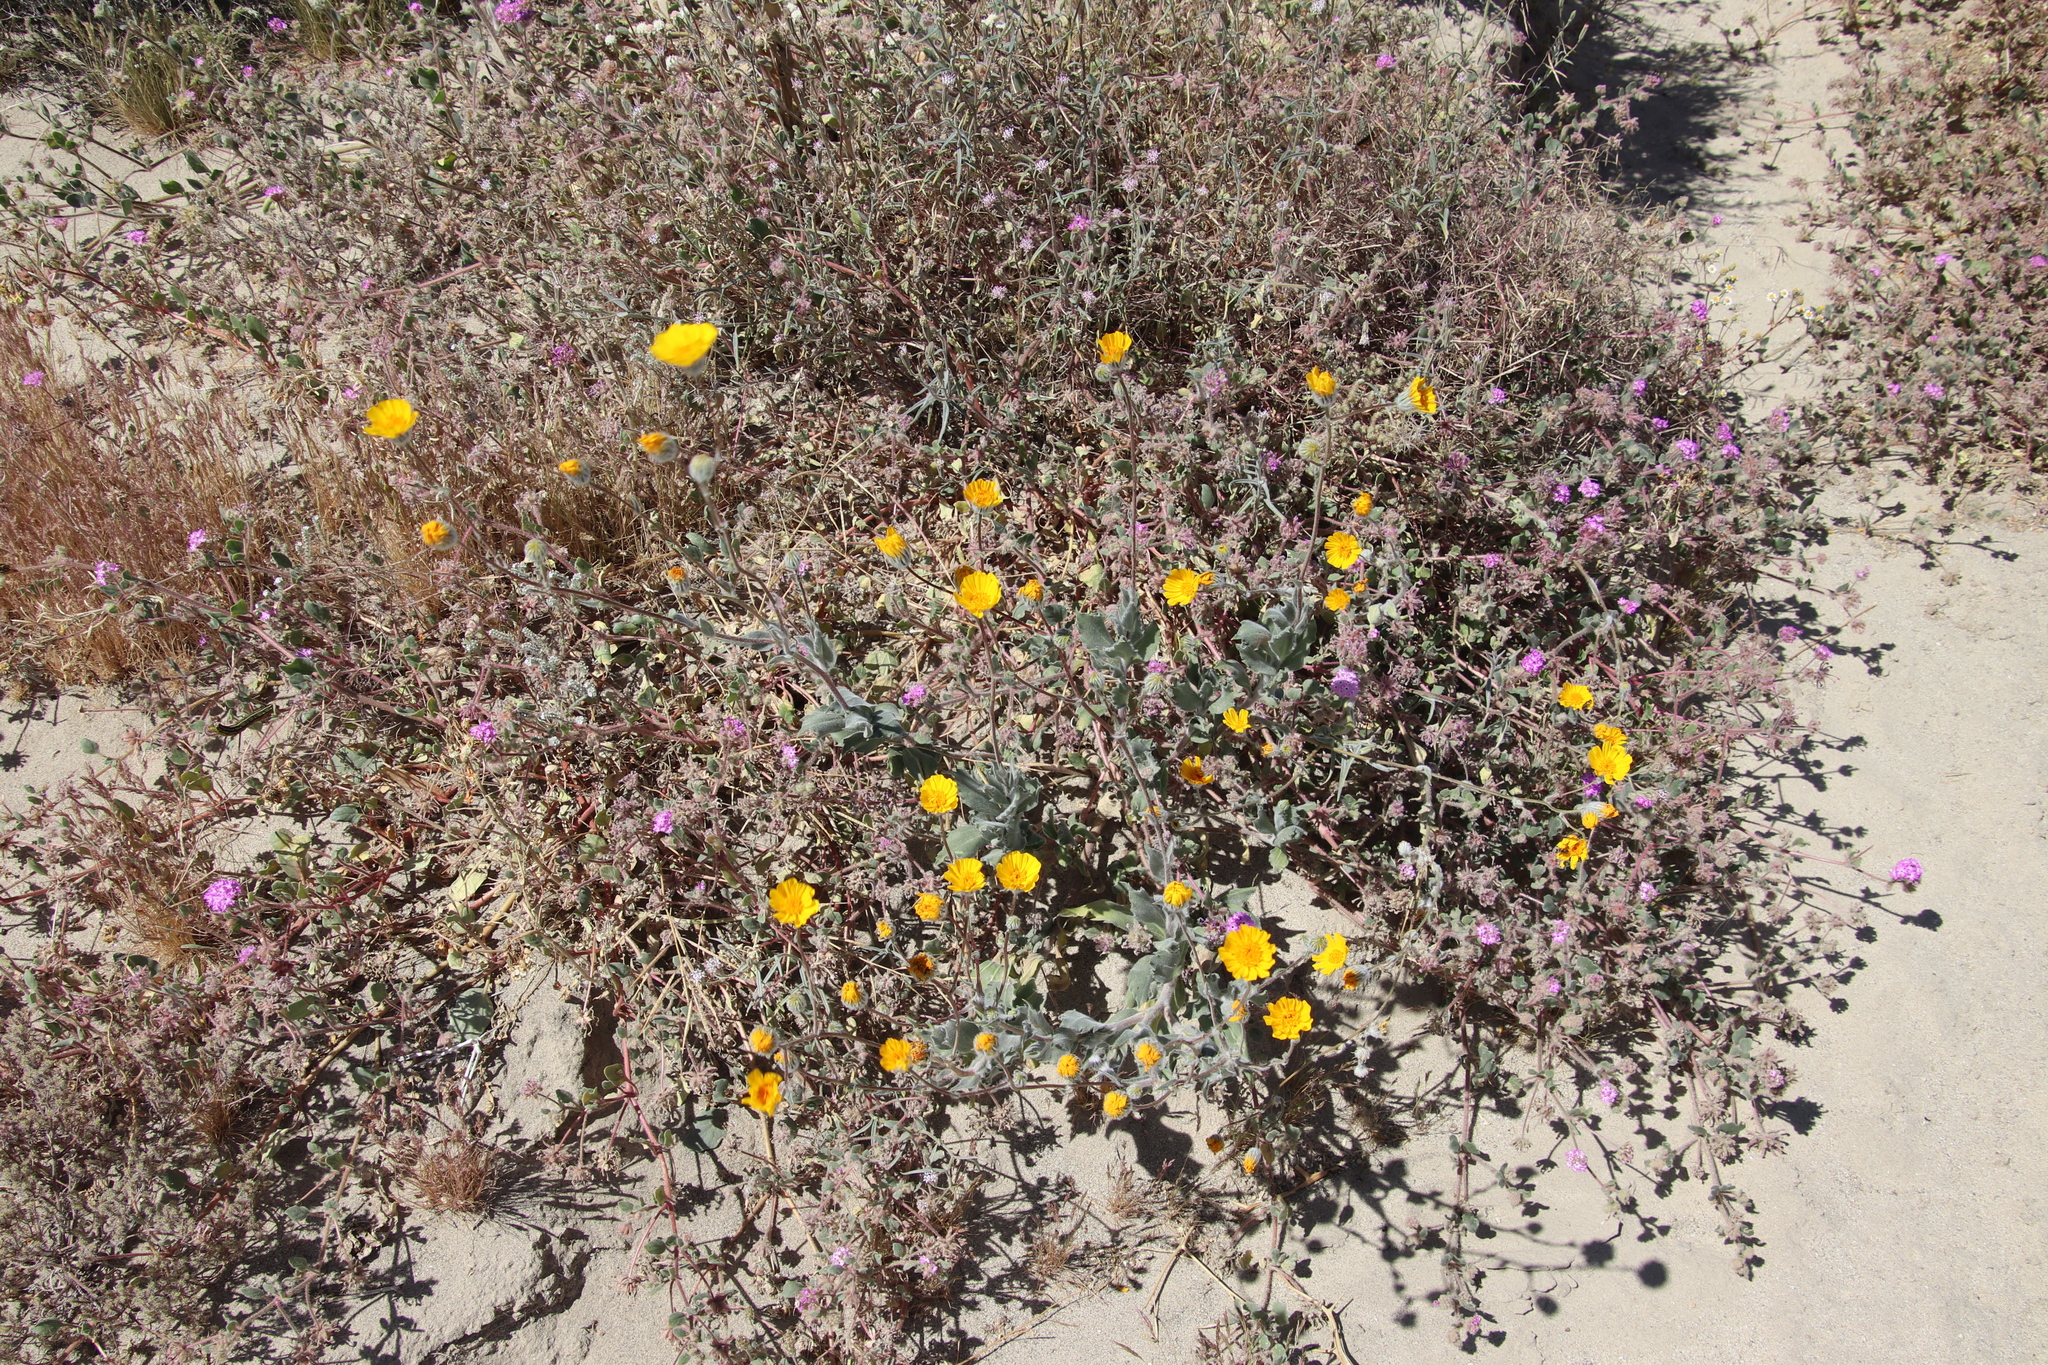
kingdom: Plantae
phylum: Tracheophyta
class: Magnoliopsida
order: Asterales
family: Asteraceae
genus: Geraea
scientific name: Geraea canescens
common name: Desert-gold
